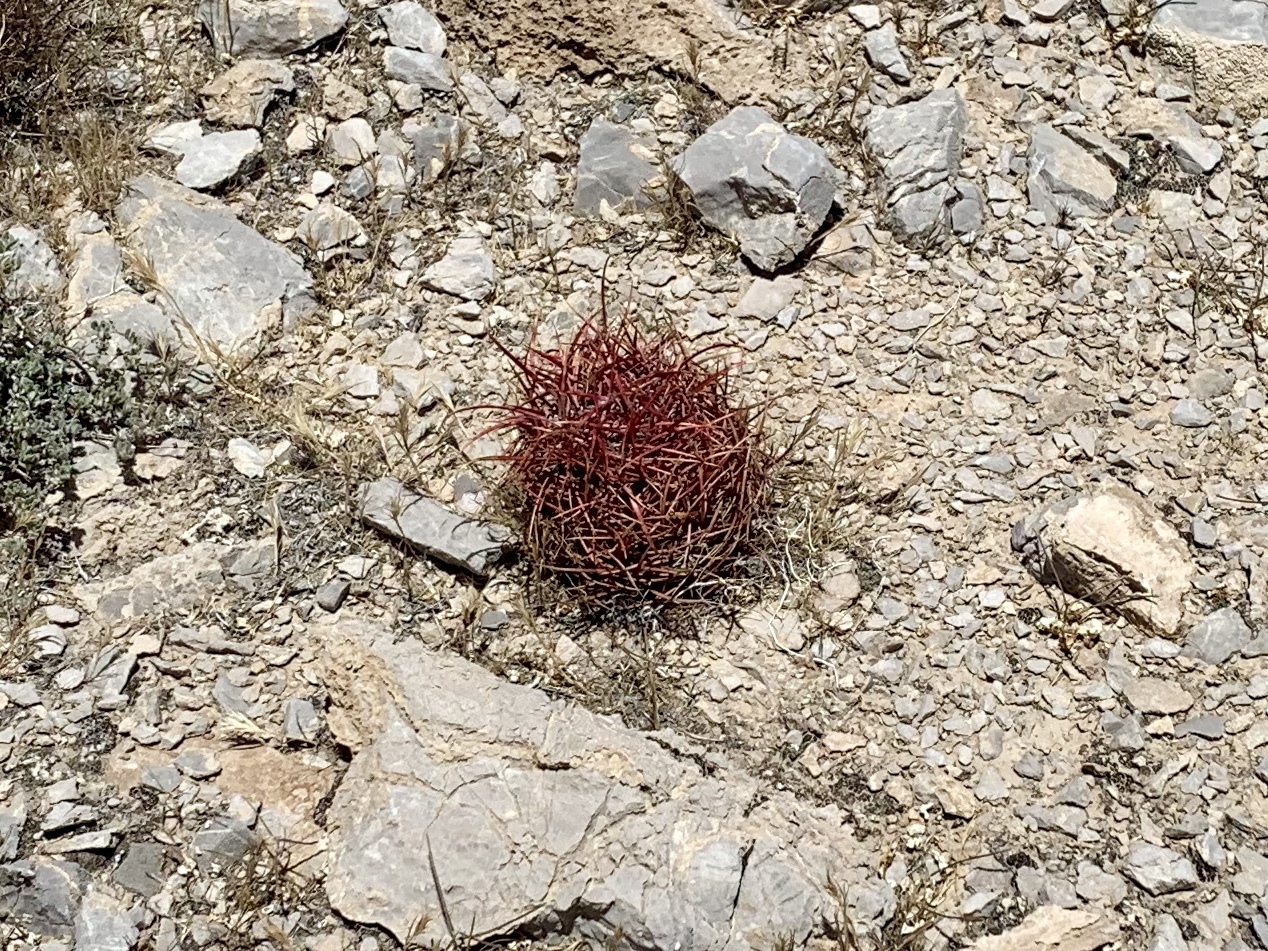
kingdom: Plantae
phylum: Tracheophyta
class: Magnoliopsida
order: Caryophyllales
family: Cactaceae
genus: Ferocactus
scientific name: Ferocactus cylindraceus
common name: California barrel cactus
